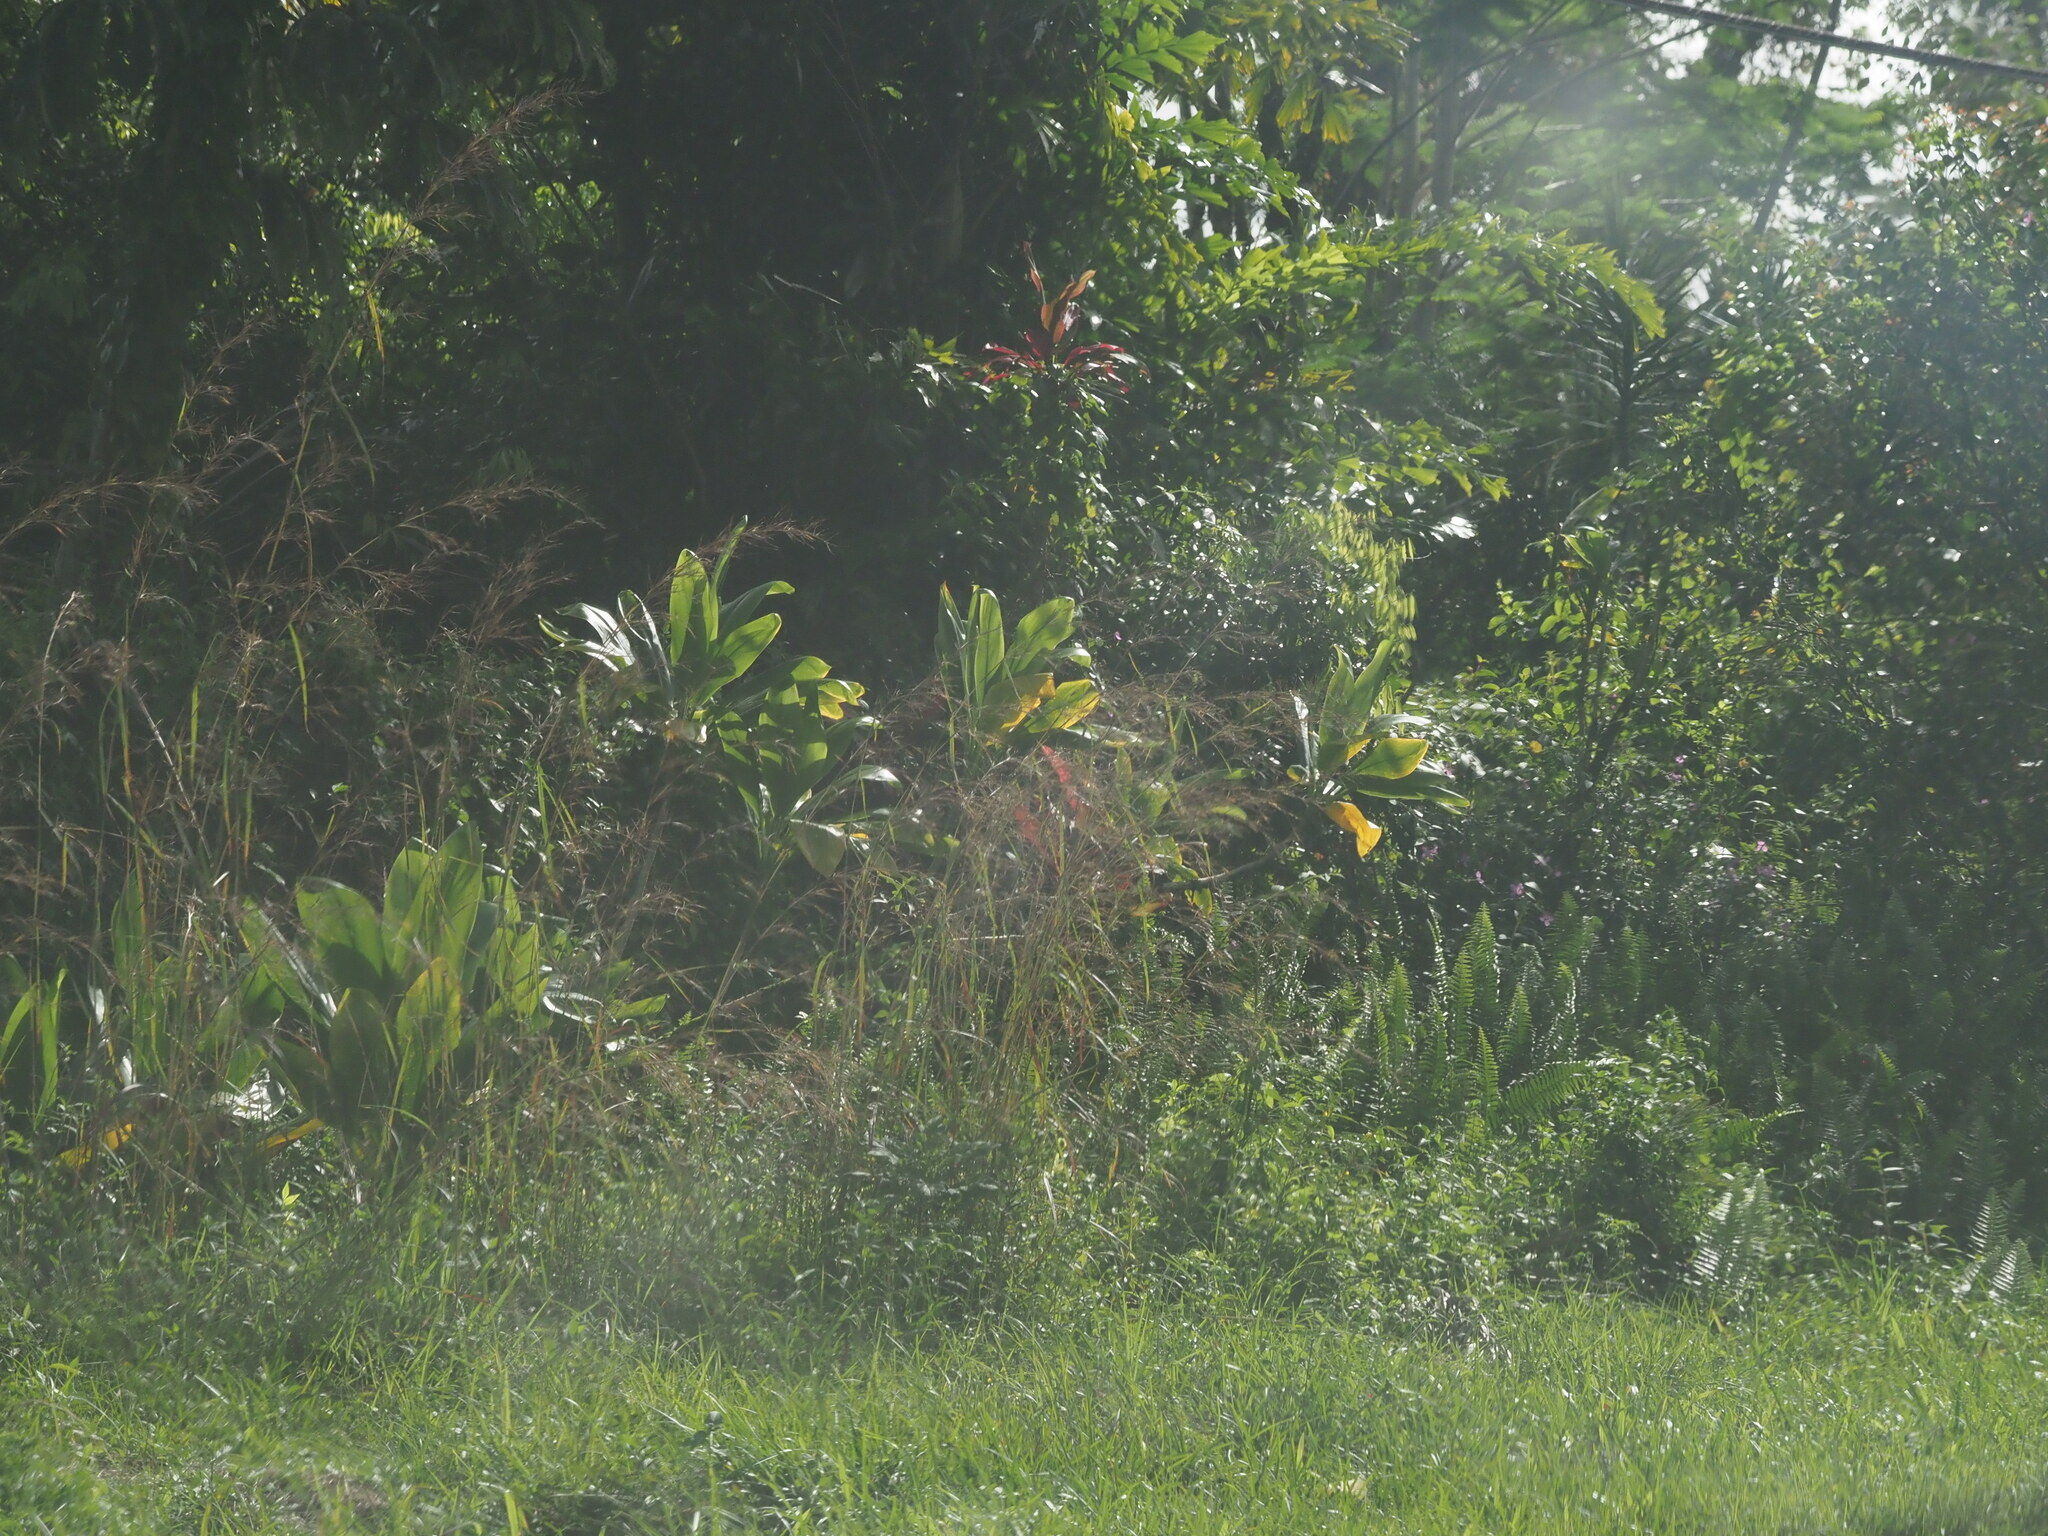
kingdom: Plantae
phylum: Tracheophyta
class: Liliopsida
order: Poales
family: Poaceae
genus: Hyparrhenia
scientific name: Hyparrhenia rufa
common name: Jaraguagrass
